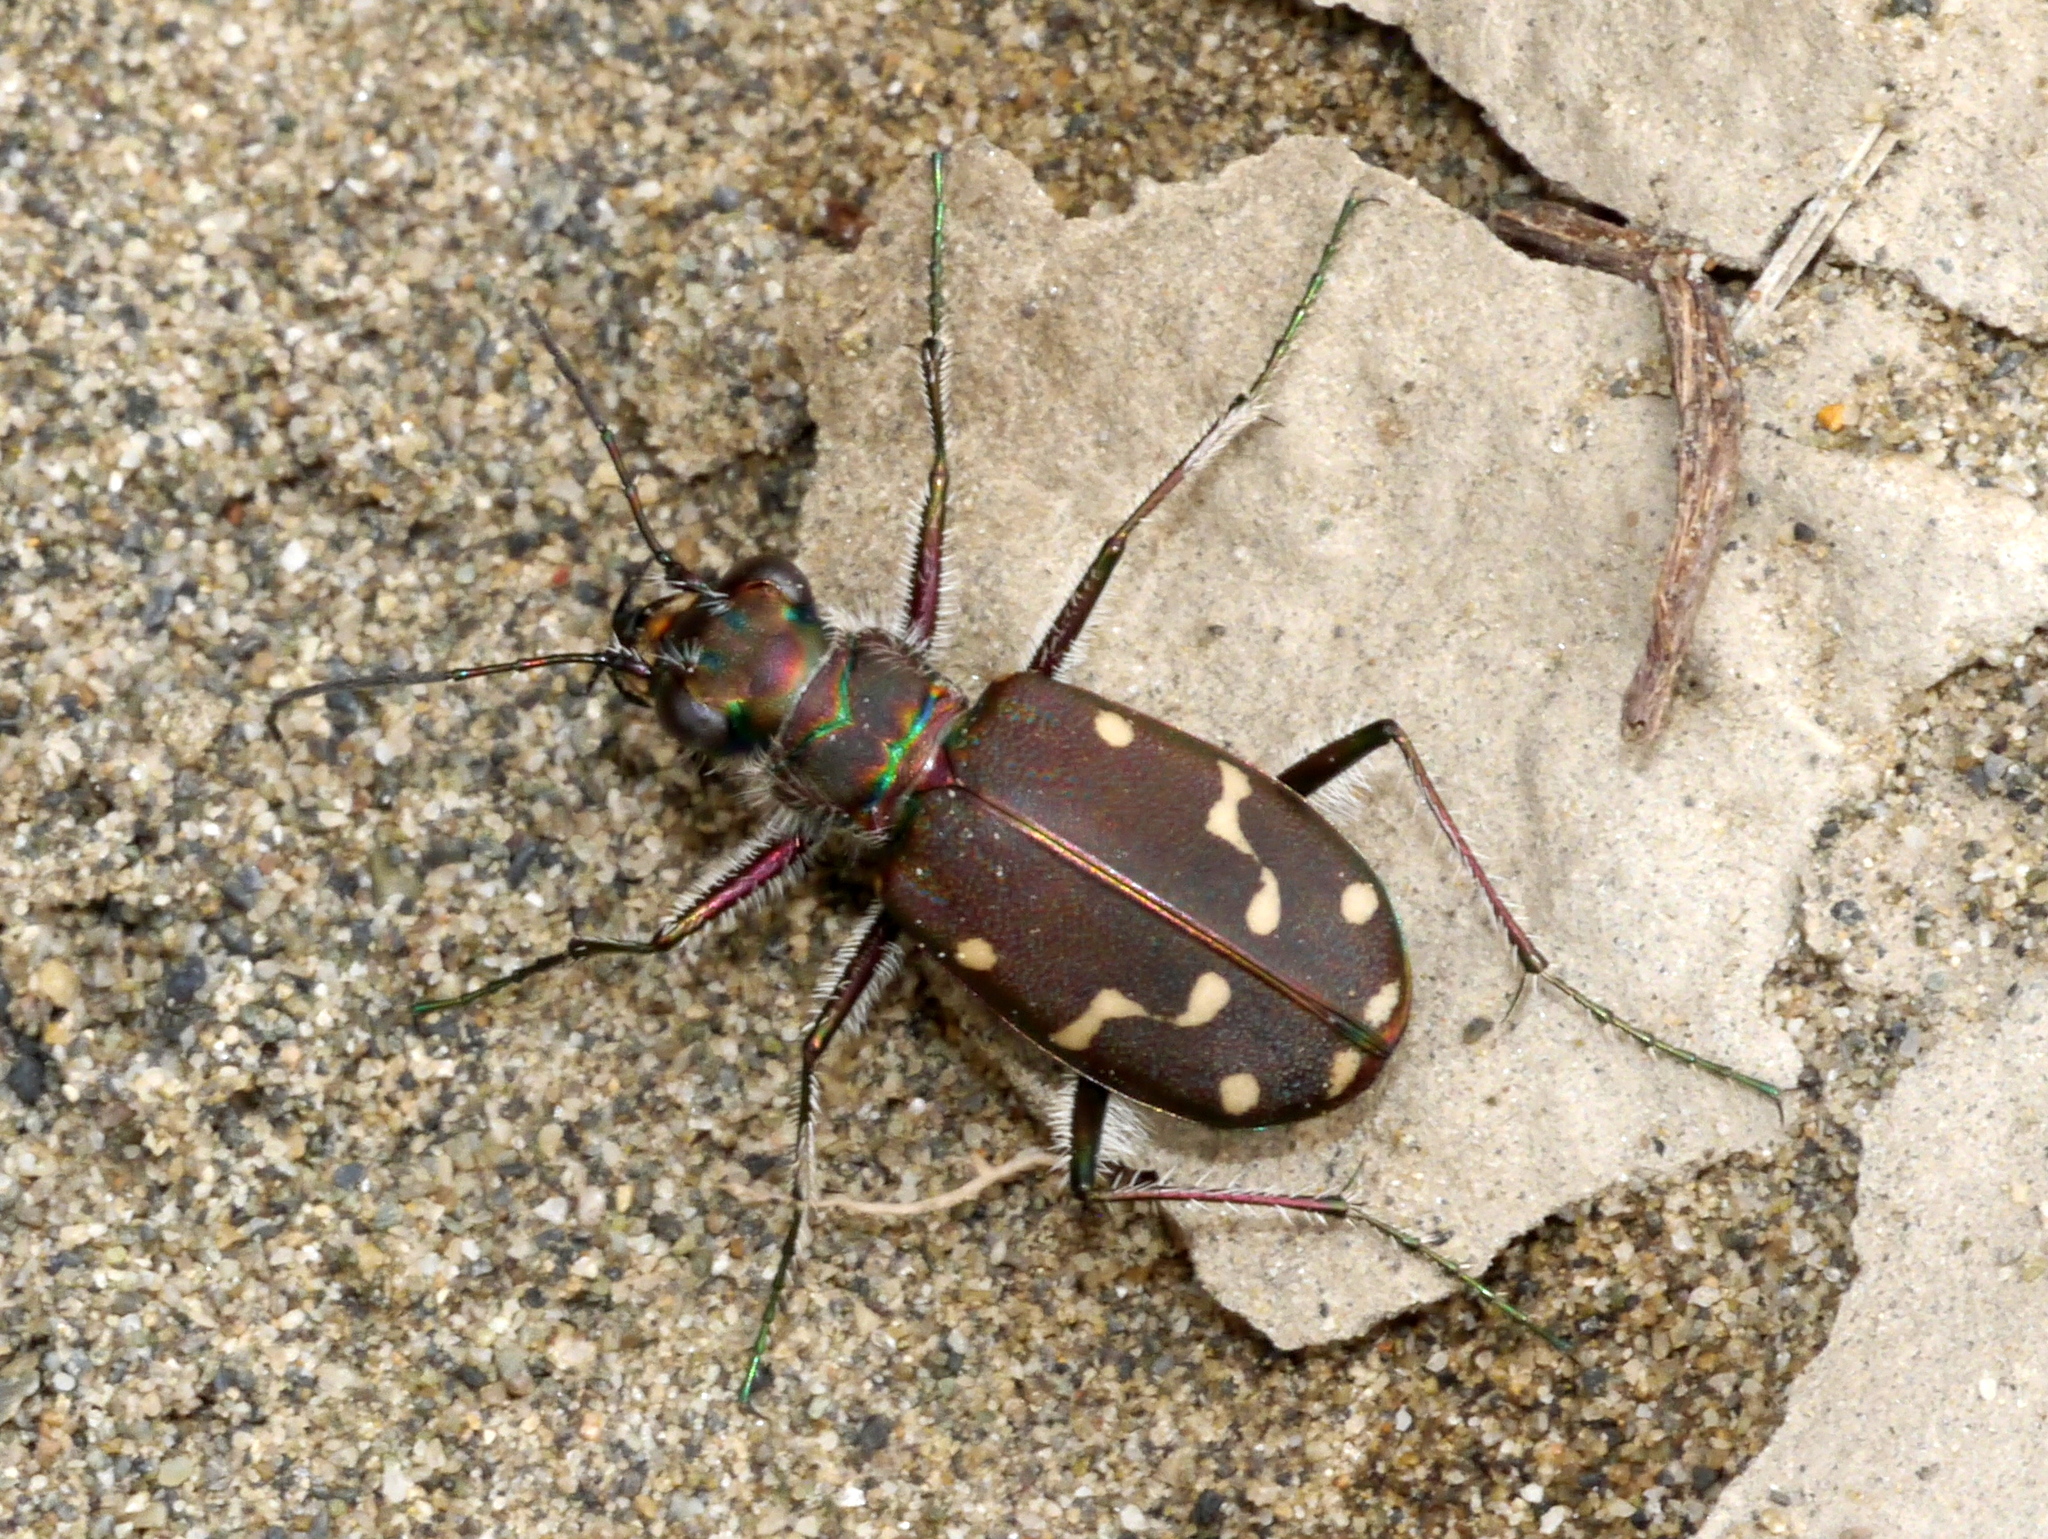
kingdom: Animalia
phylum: Arthropoda
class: Insecta
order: Coleoptera
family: Carabidae
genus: Cicindela
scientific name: Cicindela oregona
